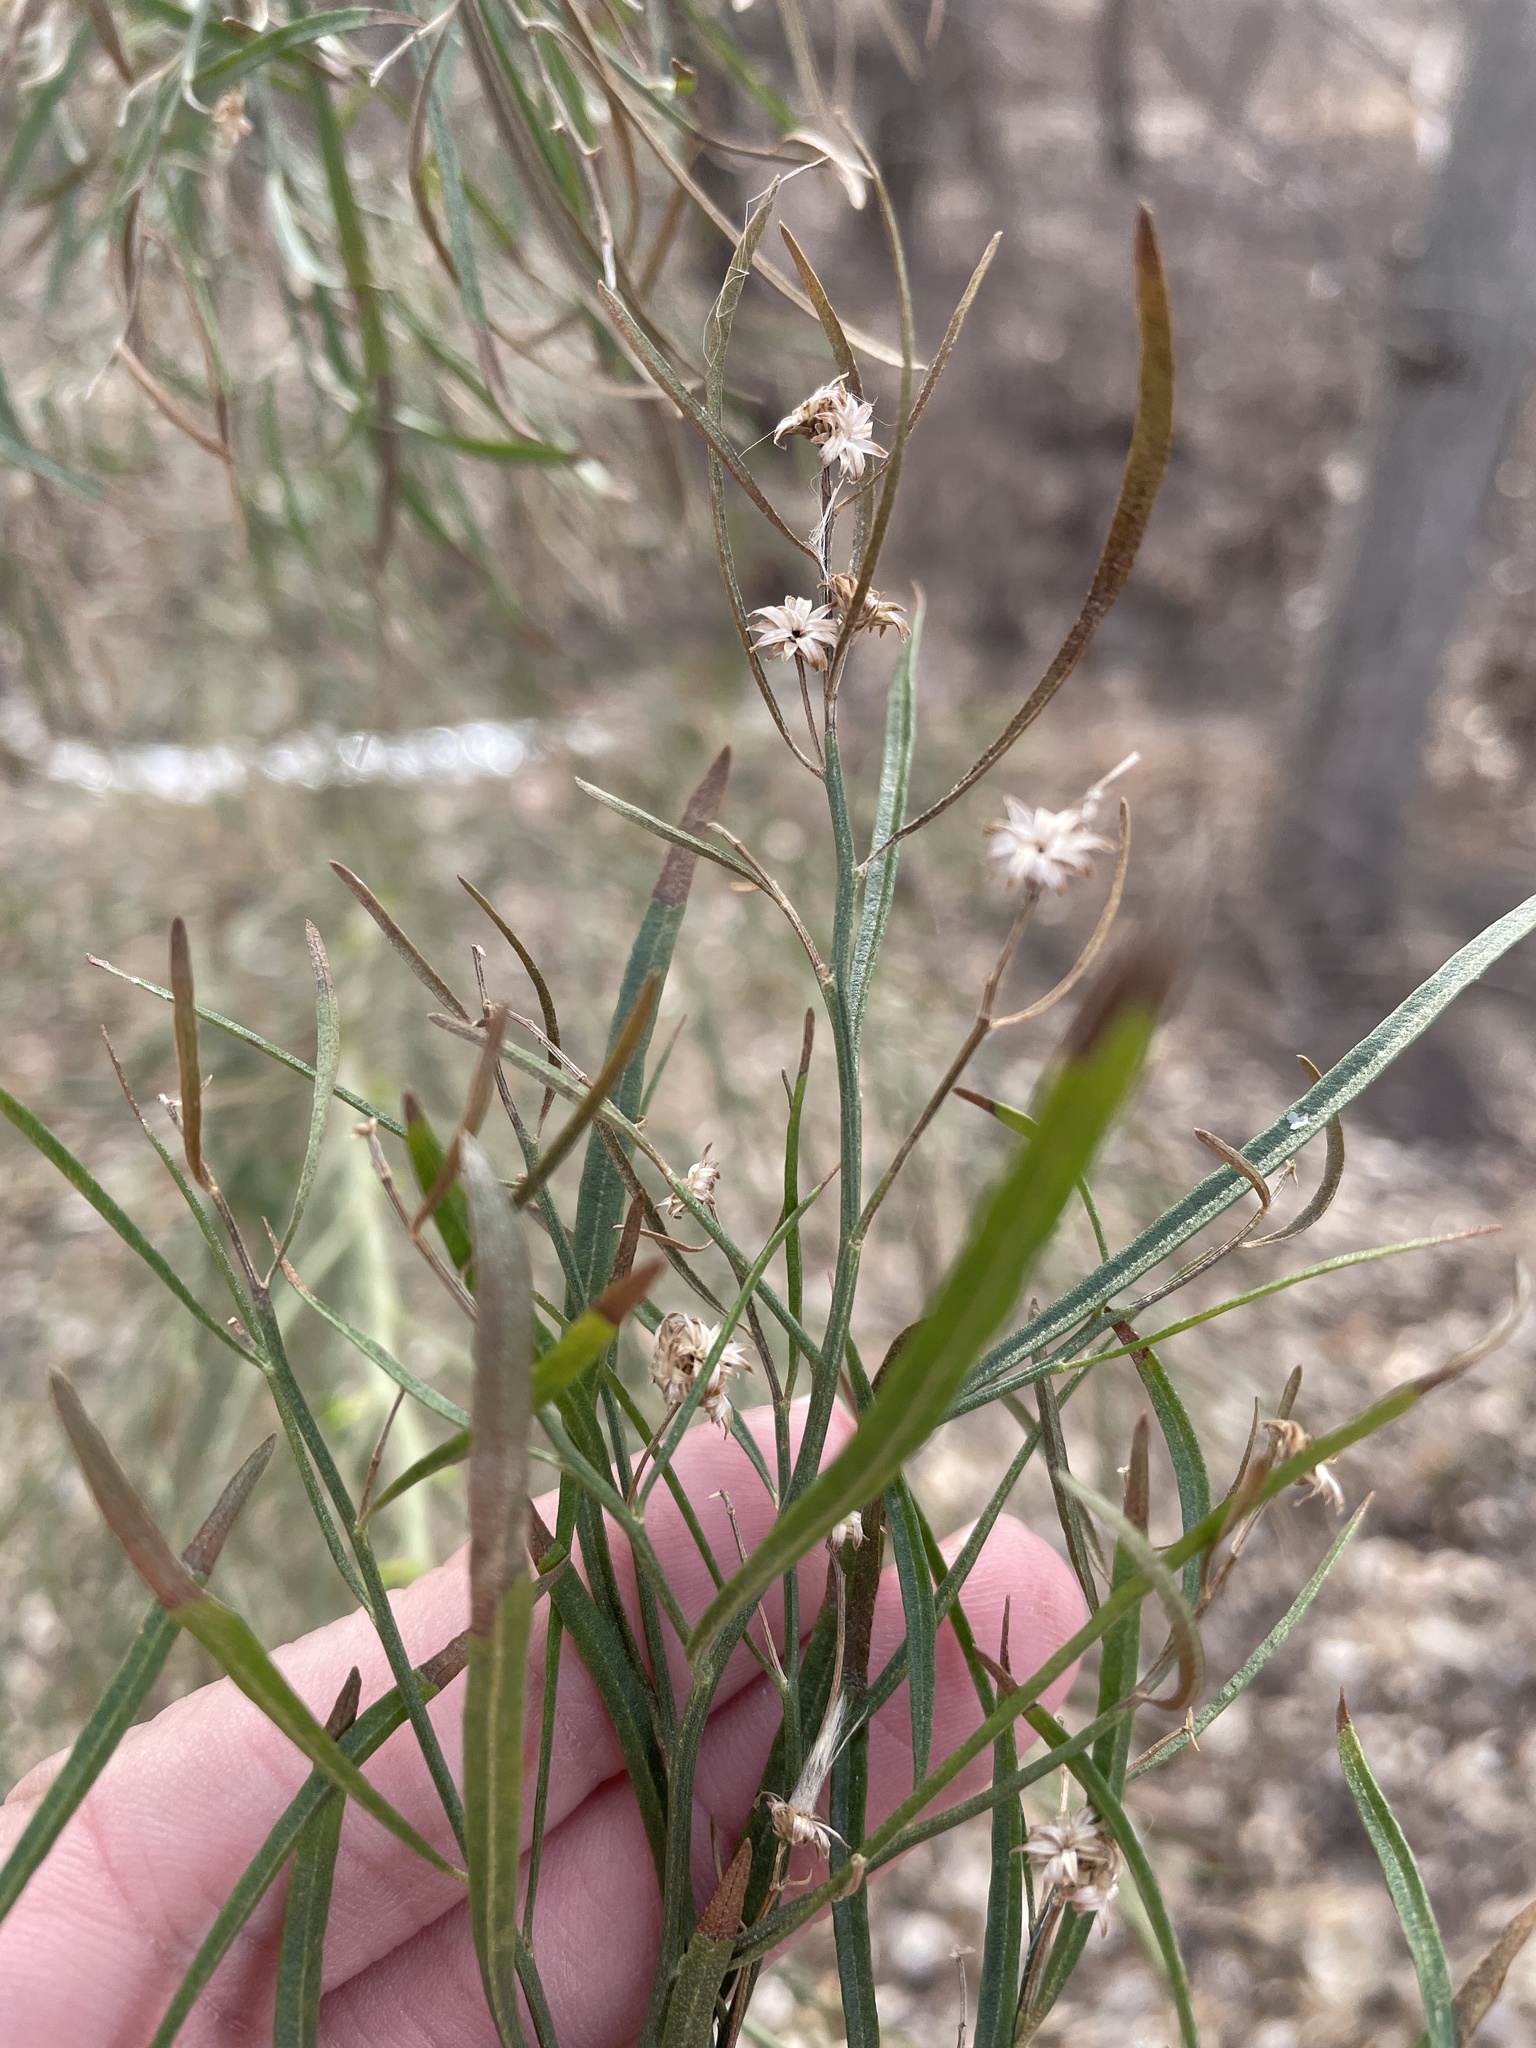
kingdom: Plantae
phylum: Tracheophyta
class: Magnoliopsida
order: Asterales
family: Asteraceae
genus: Baccharis
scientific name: Baccharis neglecta
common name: Roosevelt-weed
